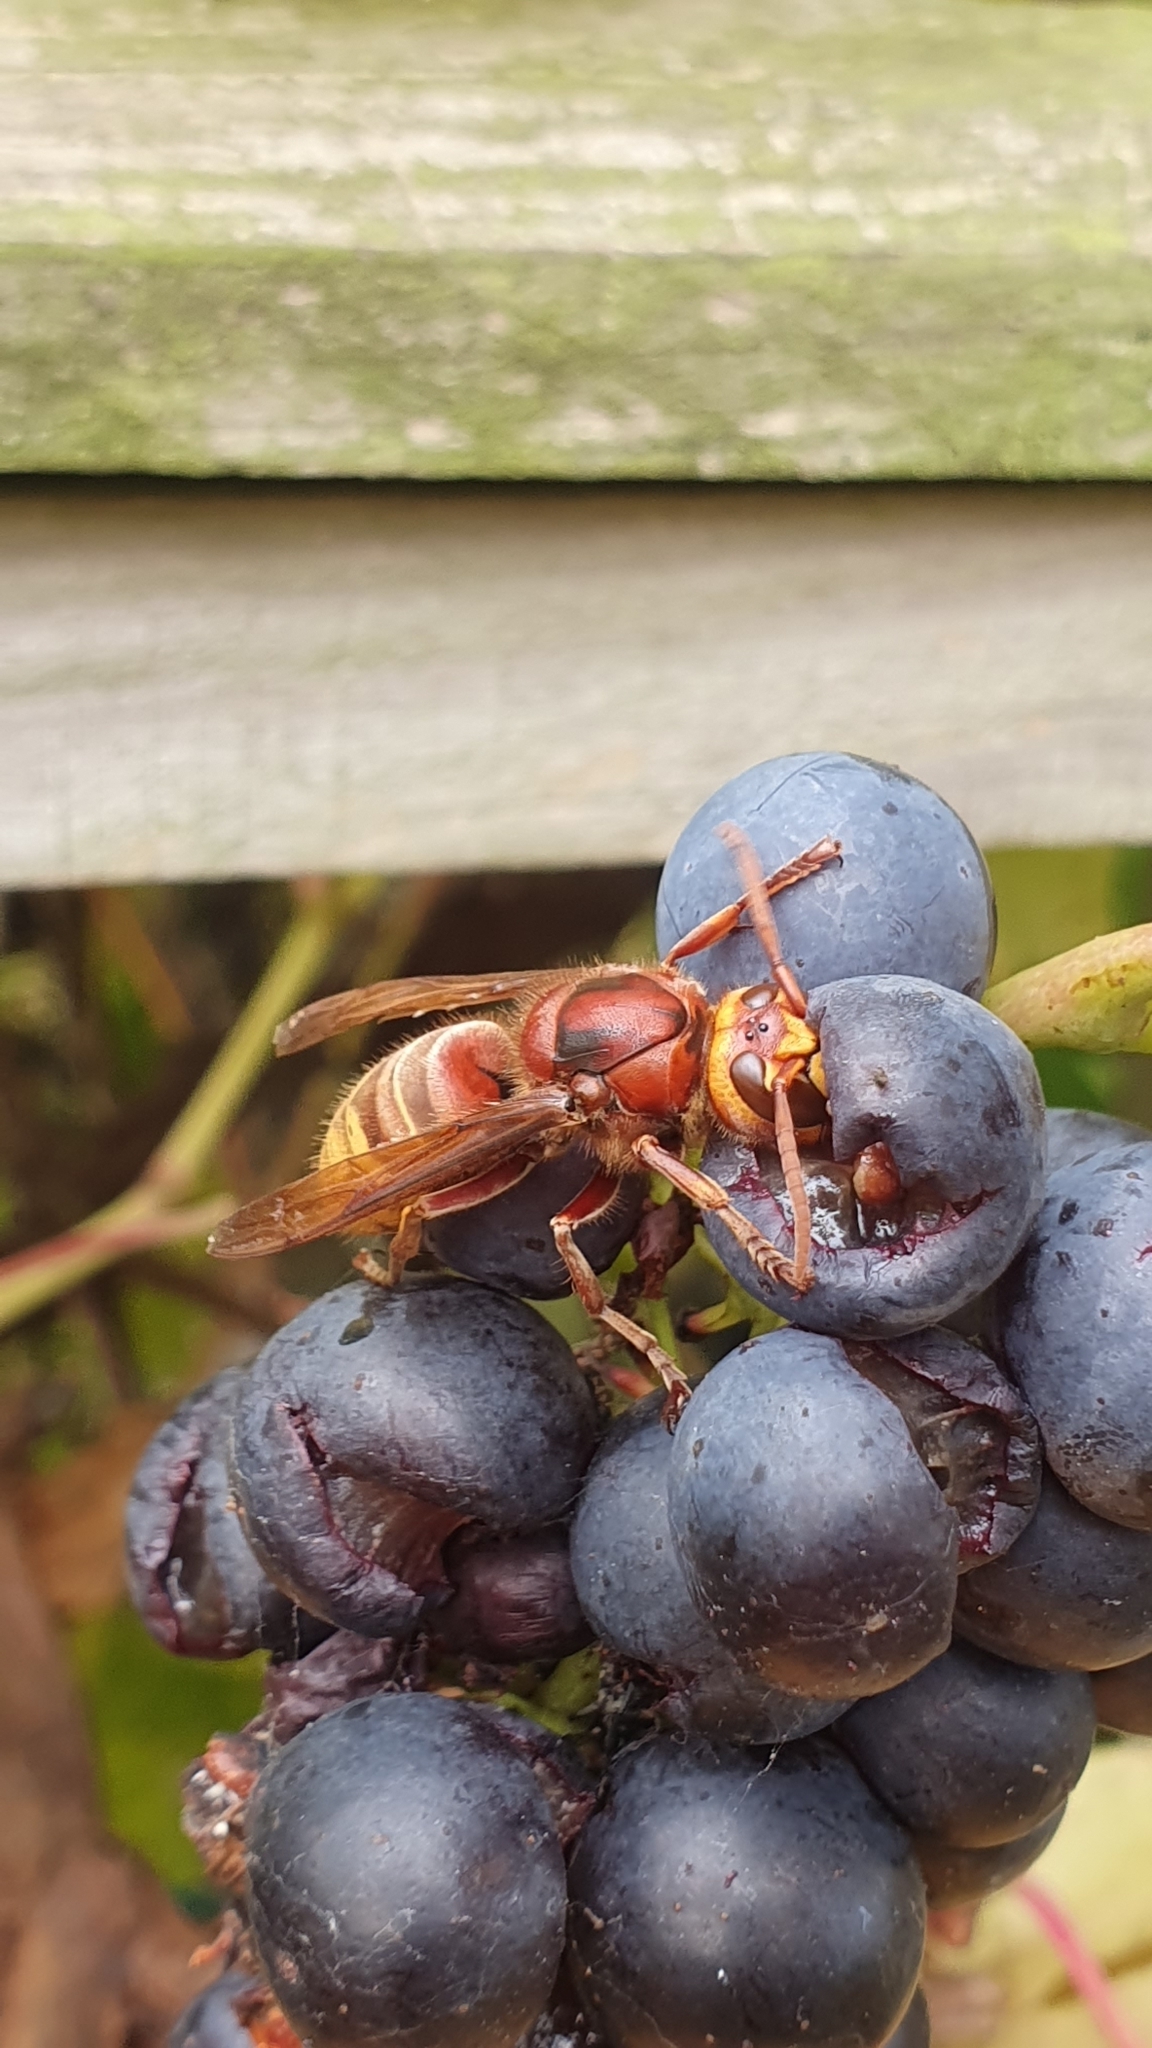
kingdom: Animalia
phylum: Arthropoda
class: Insecta
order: Hymenoptera
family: Vespidae
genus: Vespa
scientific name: Vespa crabro
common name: Hornet
